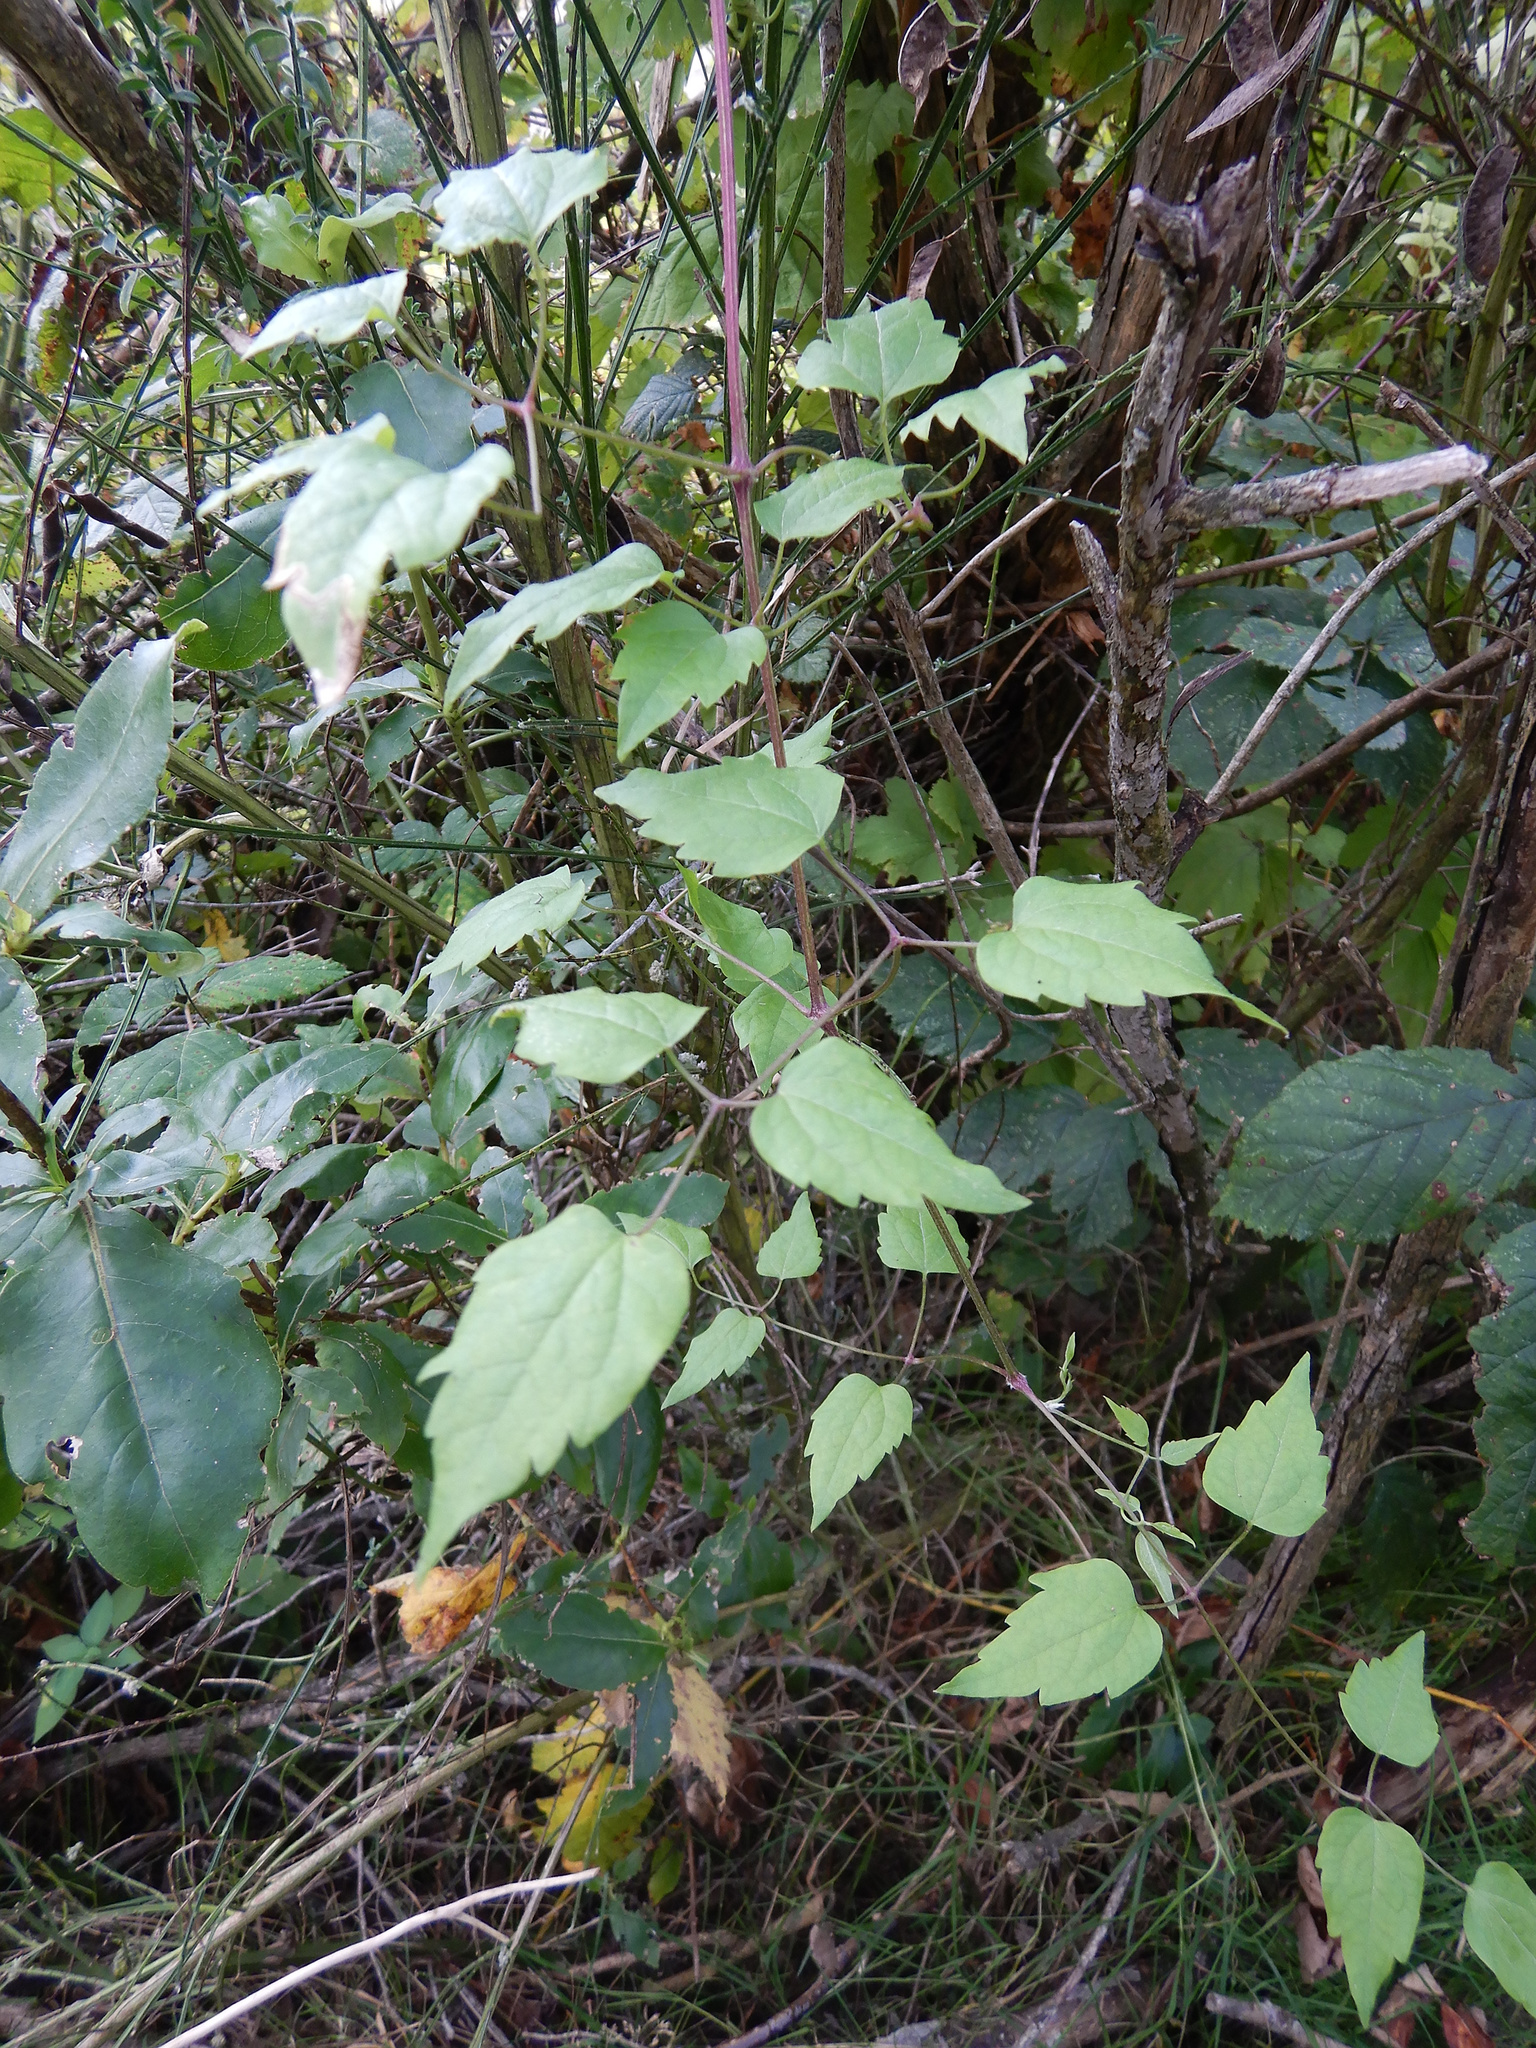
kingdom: Plantae
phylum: Tracheophyta
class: Magnoliopsida
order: Ranunculales
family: Ranunculaceae
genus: Clematis
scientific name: Clematis vitalba
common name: Evergreen clematis
